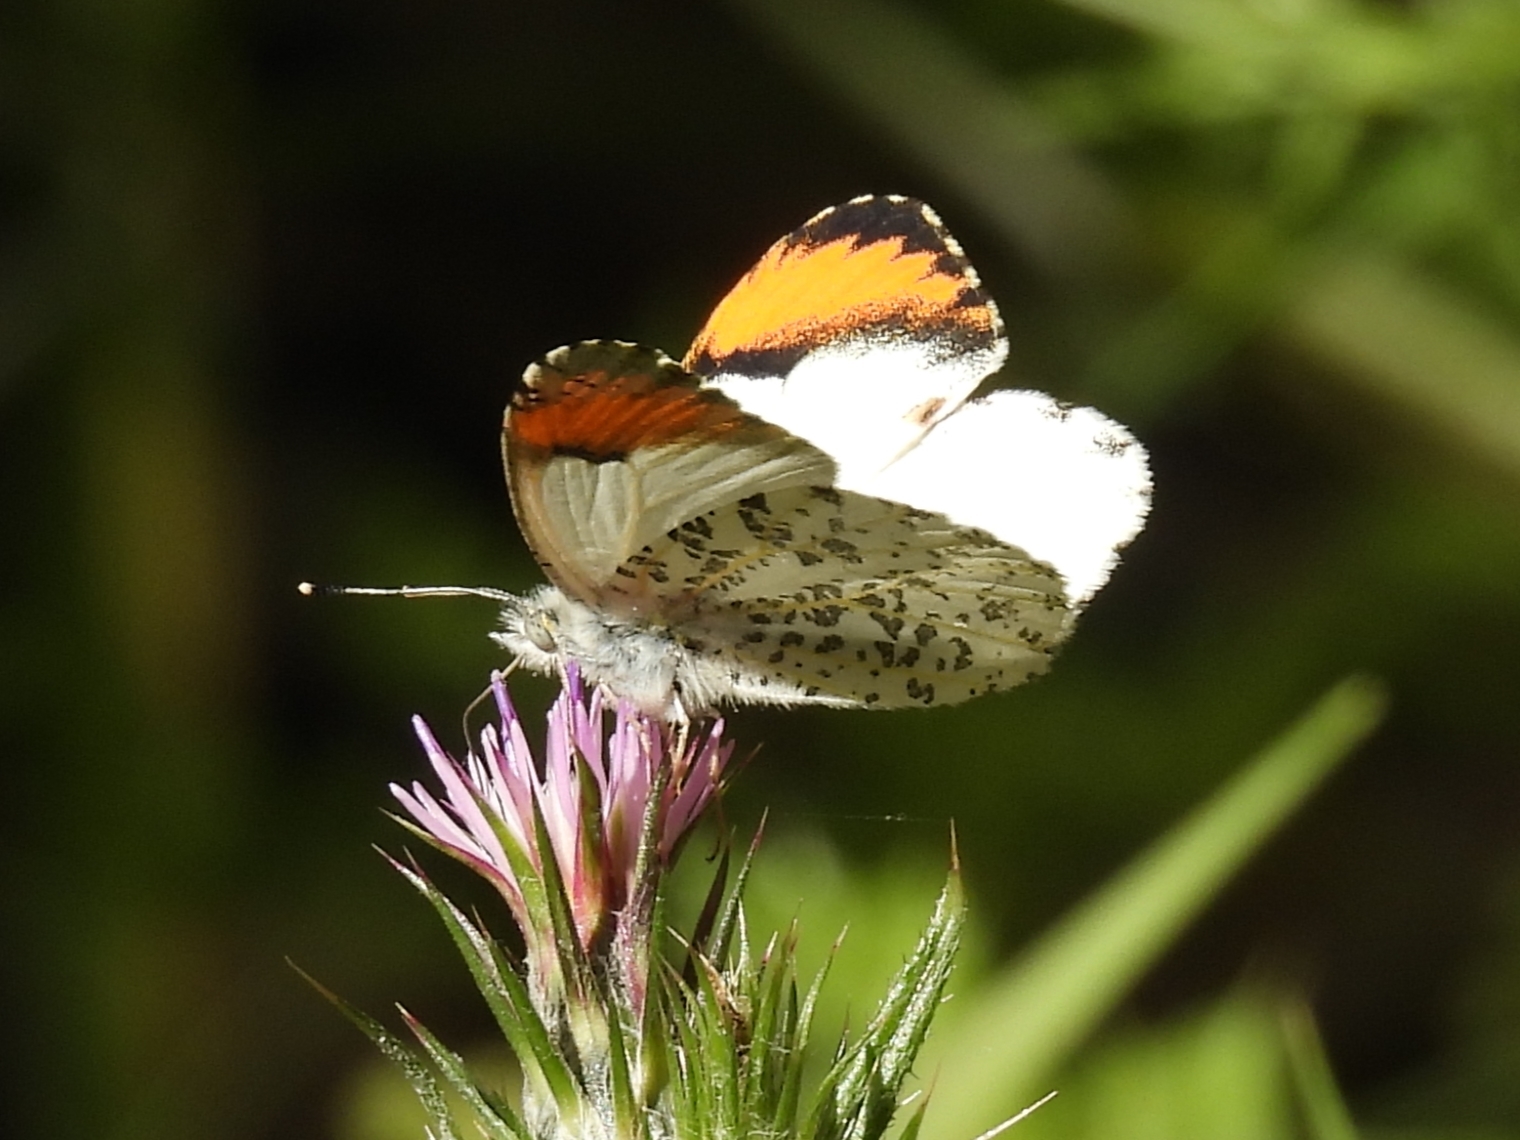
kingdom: Animalia
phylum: Arthropoda
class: Insecta
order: Lepidoptera
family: Pieridae
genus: Anthocharis
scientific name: Anthocharis sara
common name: Sara's orangetip
